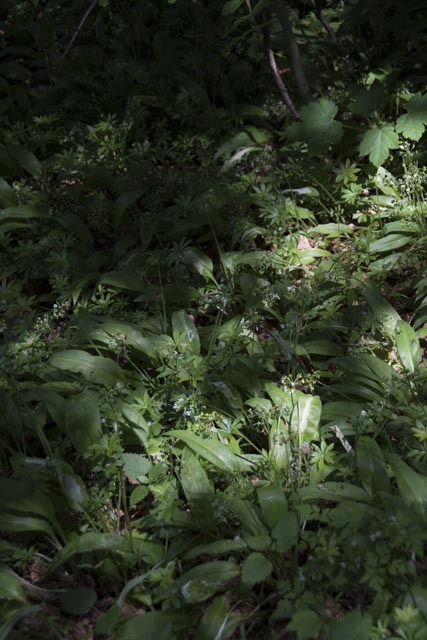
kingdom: Plantae
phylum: Tracheophyta
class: Liliopsida
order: Asparagales
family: Amaryllidaceae
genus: Allium
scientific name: Allium ursinum
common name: Ramsons
